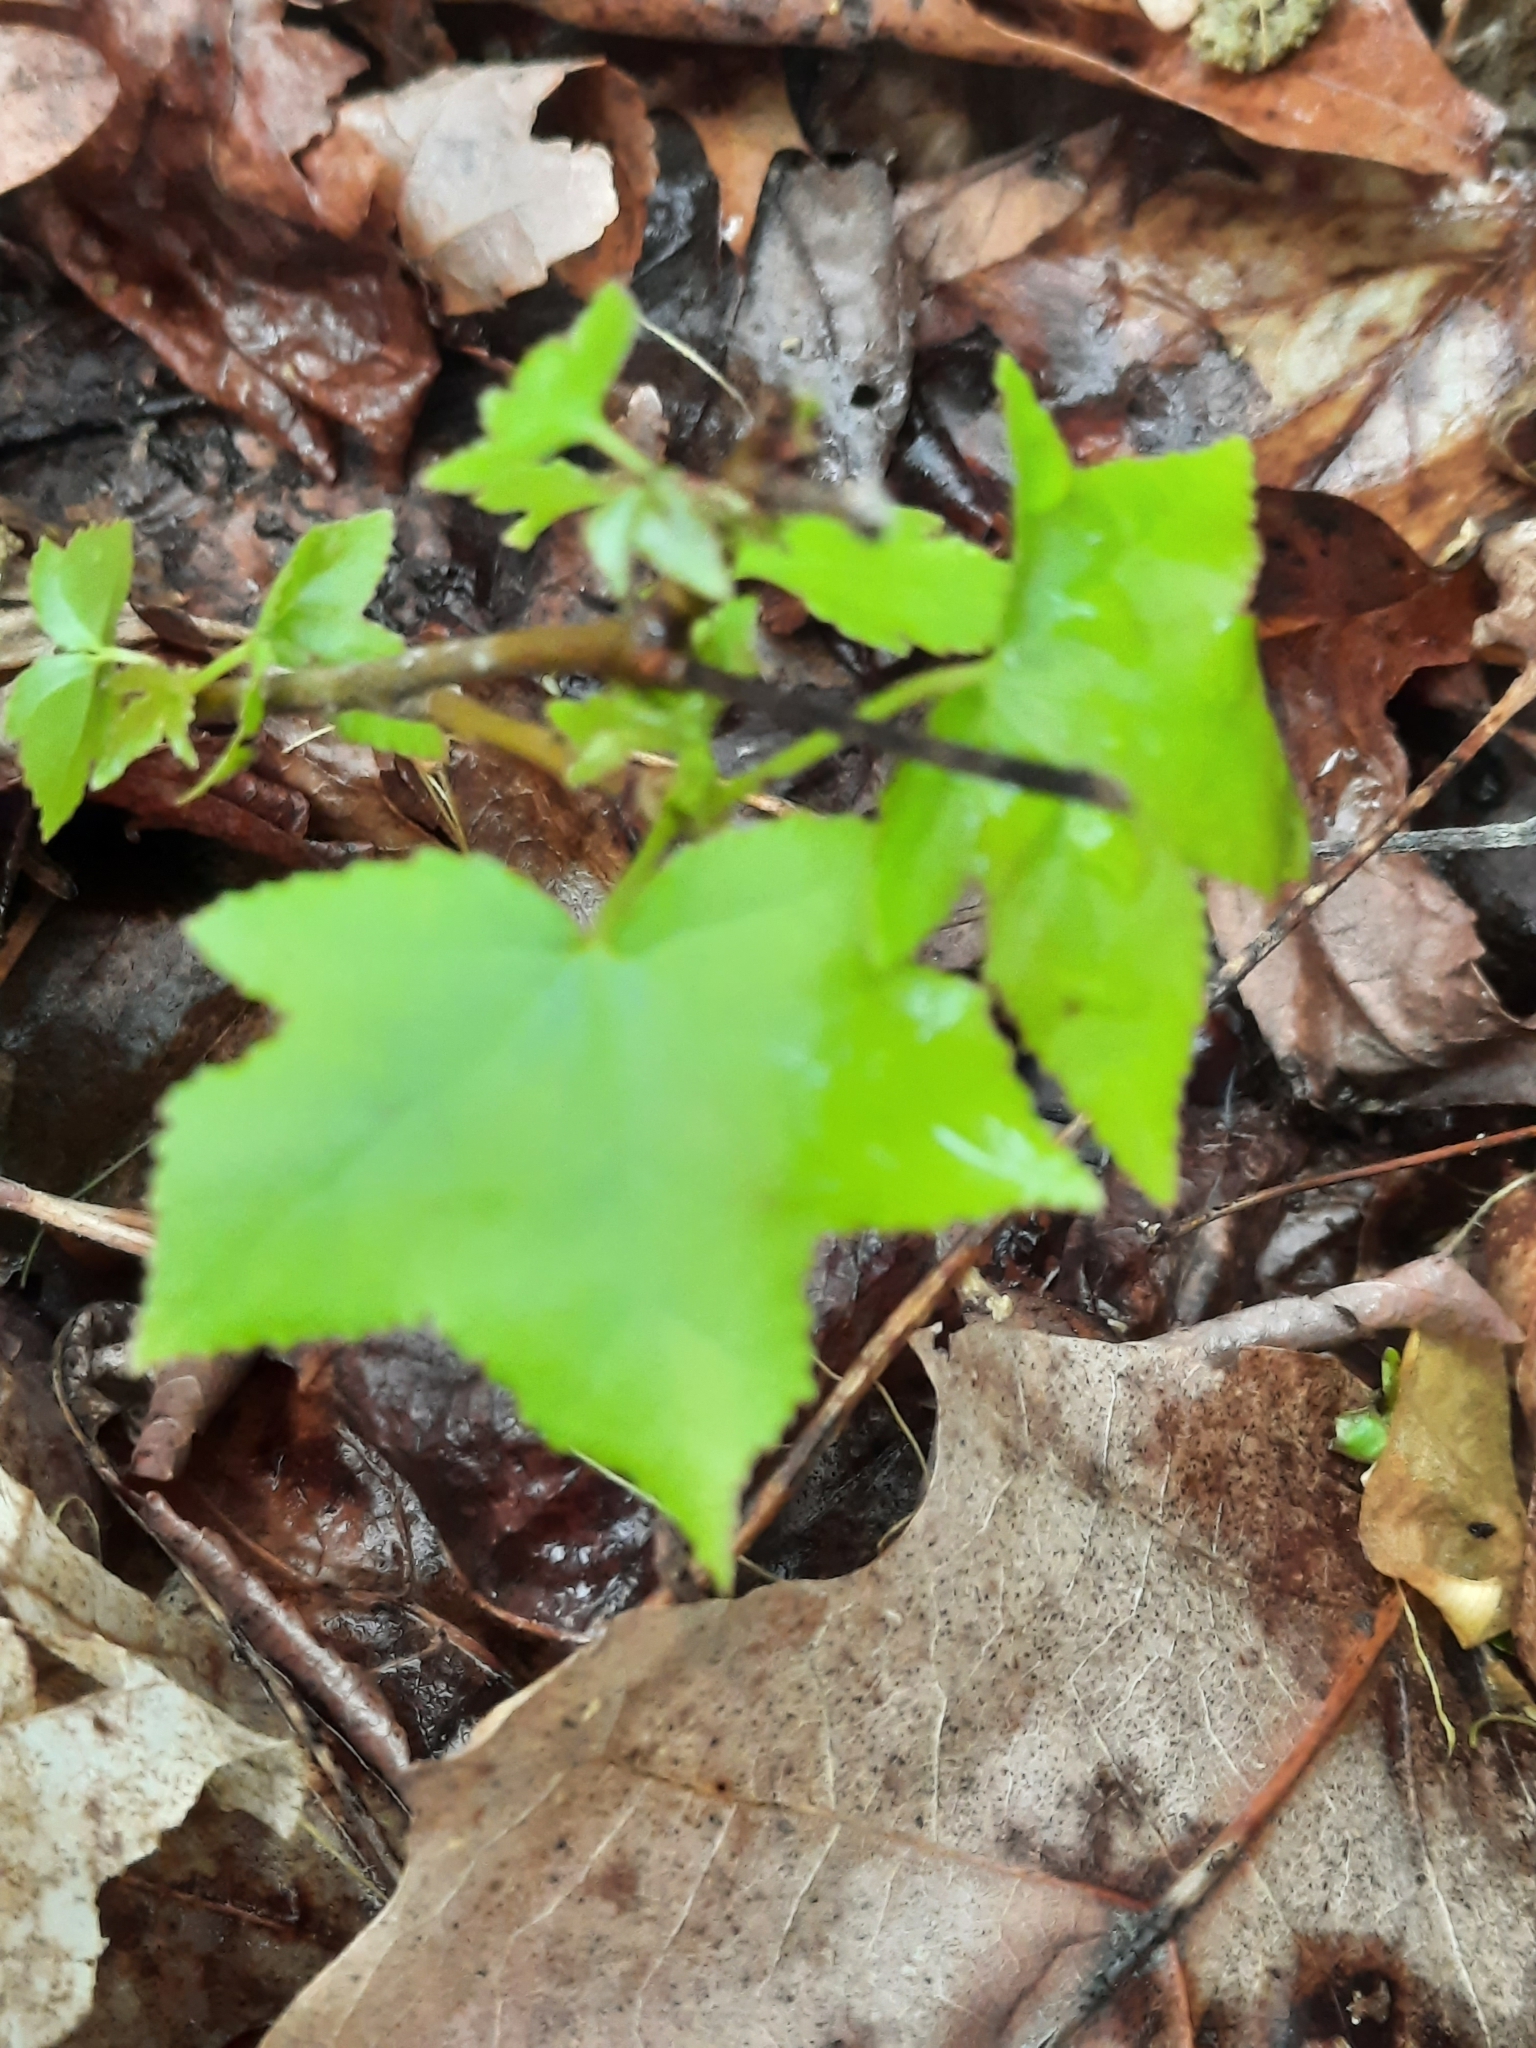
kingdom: Plantae
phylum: Tracheophyta
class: Magnoliopsida
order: Saxifragales
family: Altingiaceae
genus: Liquidambar
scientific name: Liquidambar styraciflua
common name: Sweet gum
